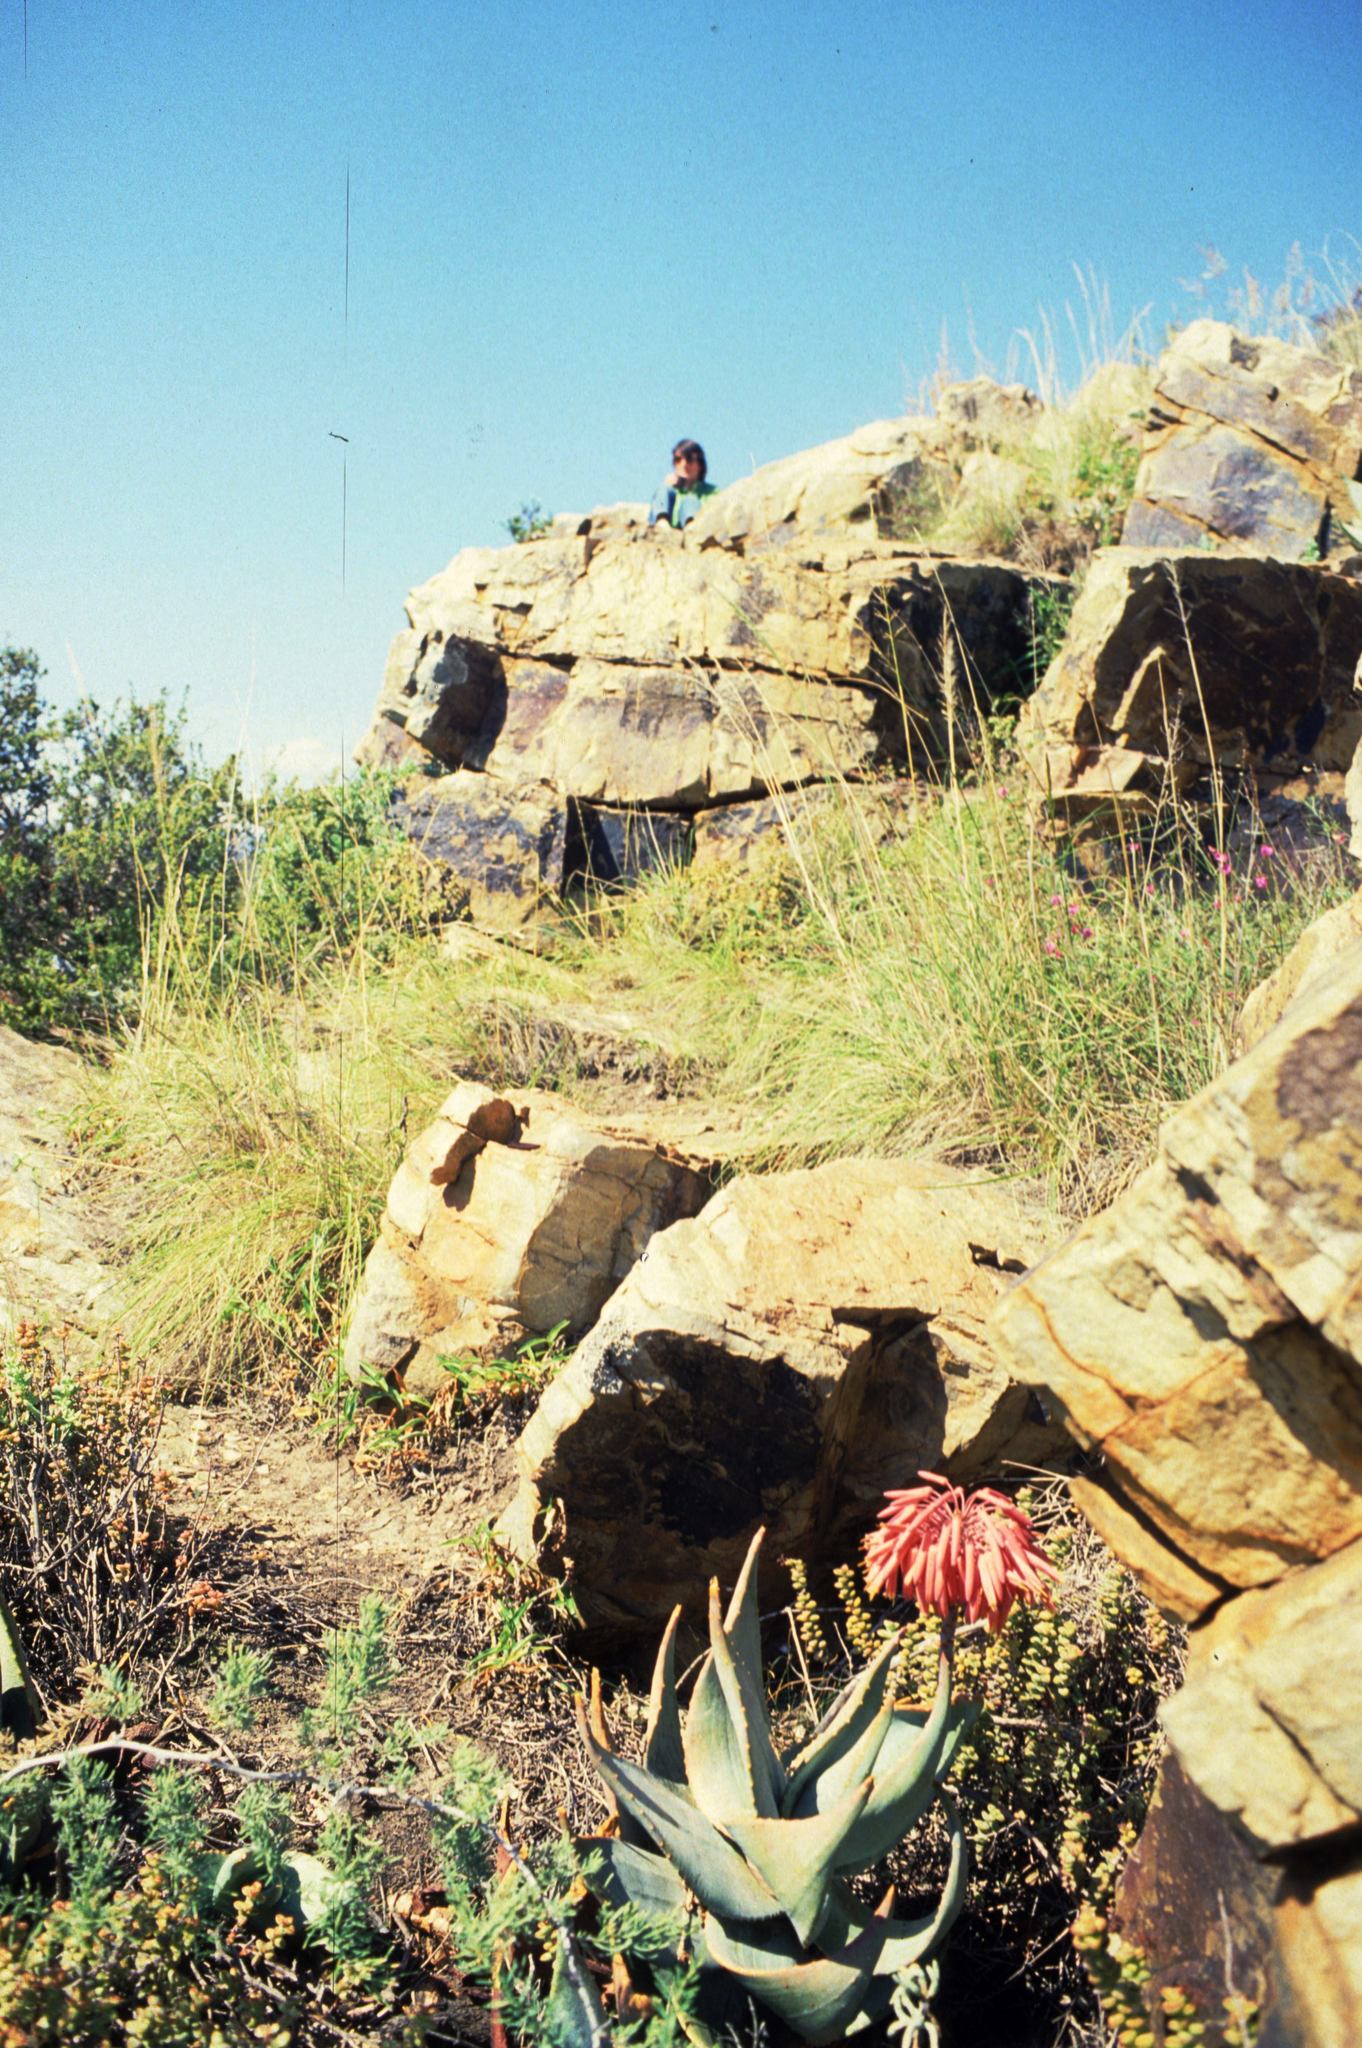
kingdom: Plantae
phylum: Tracheophyta
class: Liliopsida
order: Asparagales
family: Asphodelaceae
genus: Aloe
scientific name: Aloe perfoliata
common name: Mitra aloe
